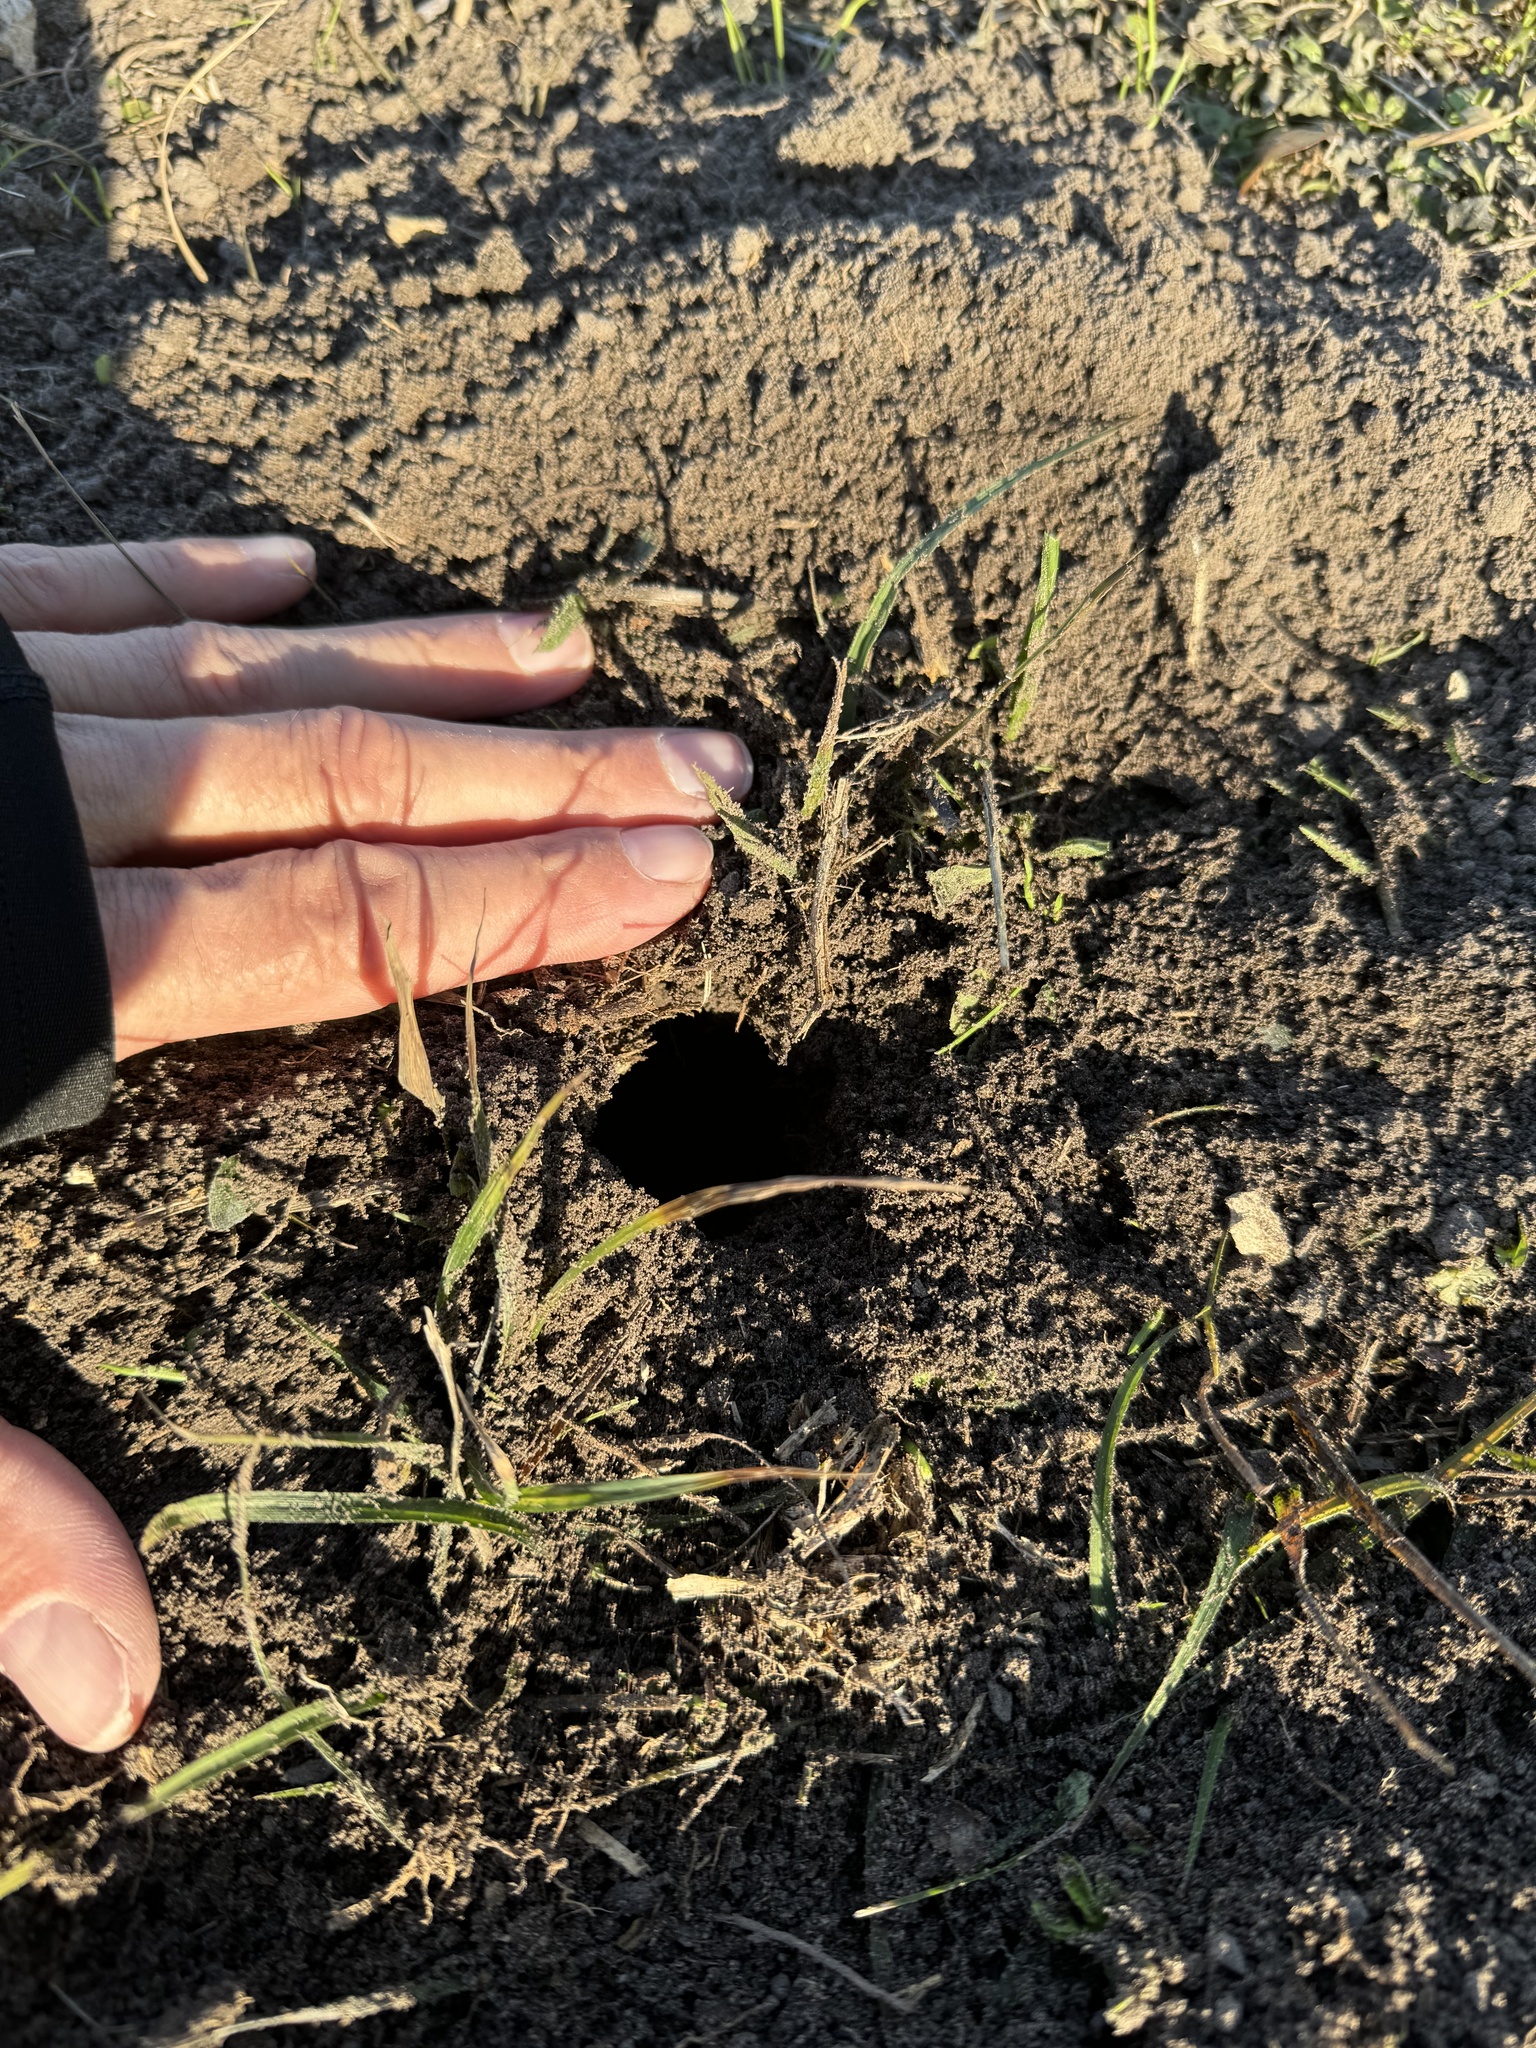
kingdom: Animalia
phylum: Chordata
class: Mammalia
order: Rodentia
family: Geomyidae
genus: Geomys
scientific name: Geomys breviceps
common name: Baird's pocket gopher
